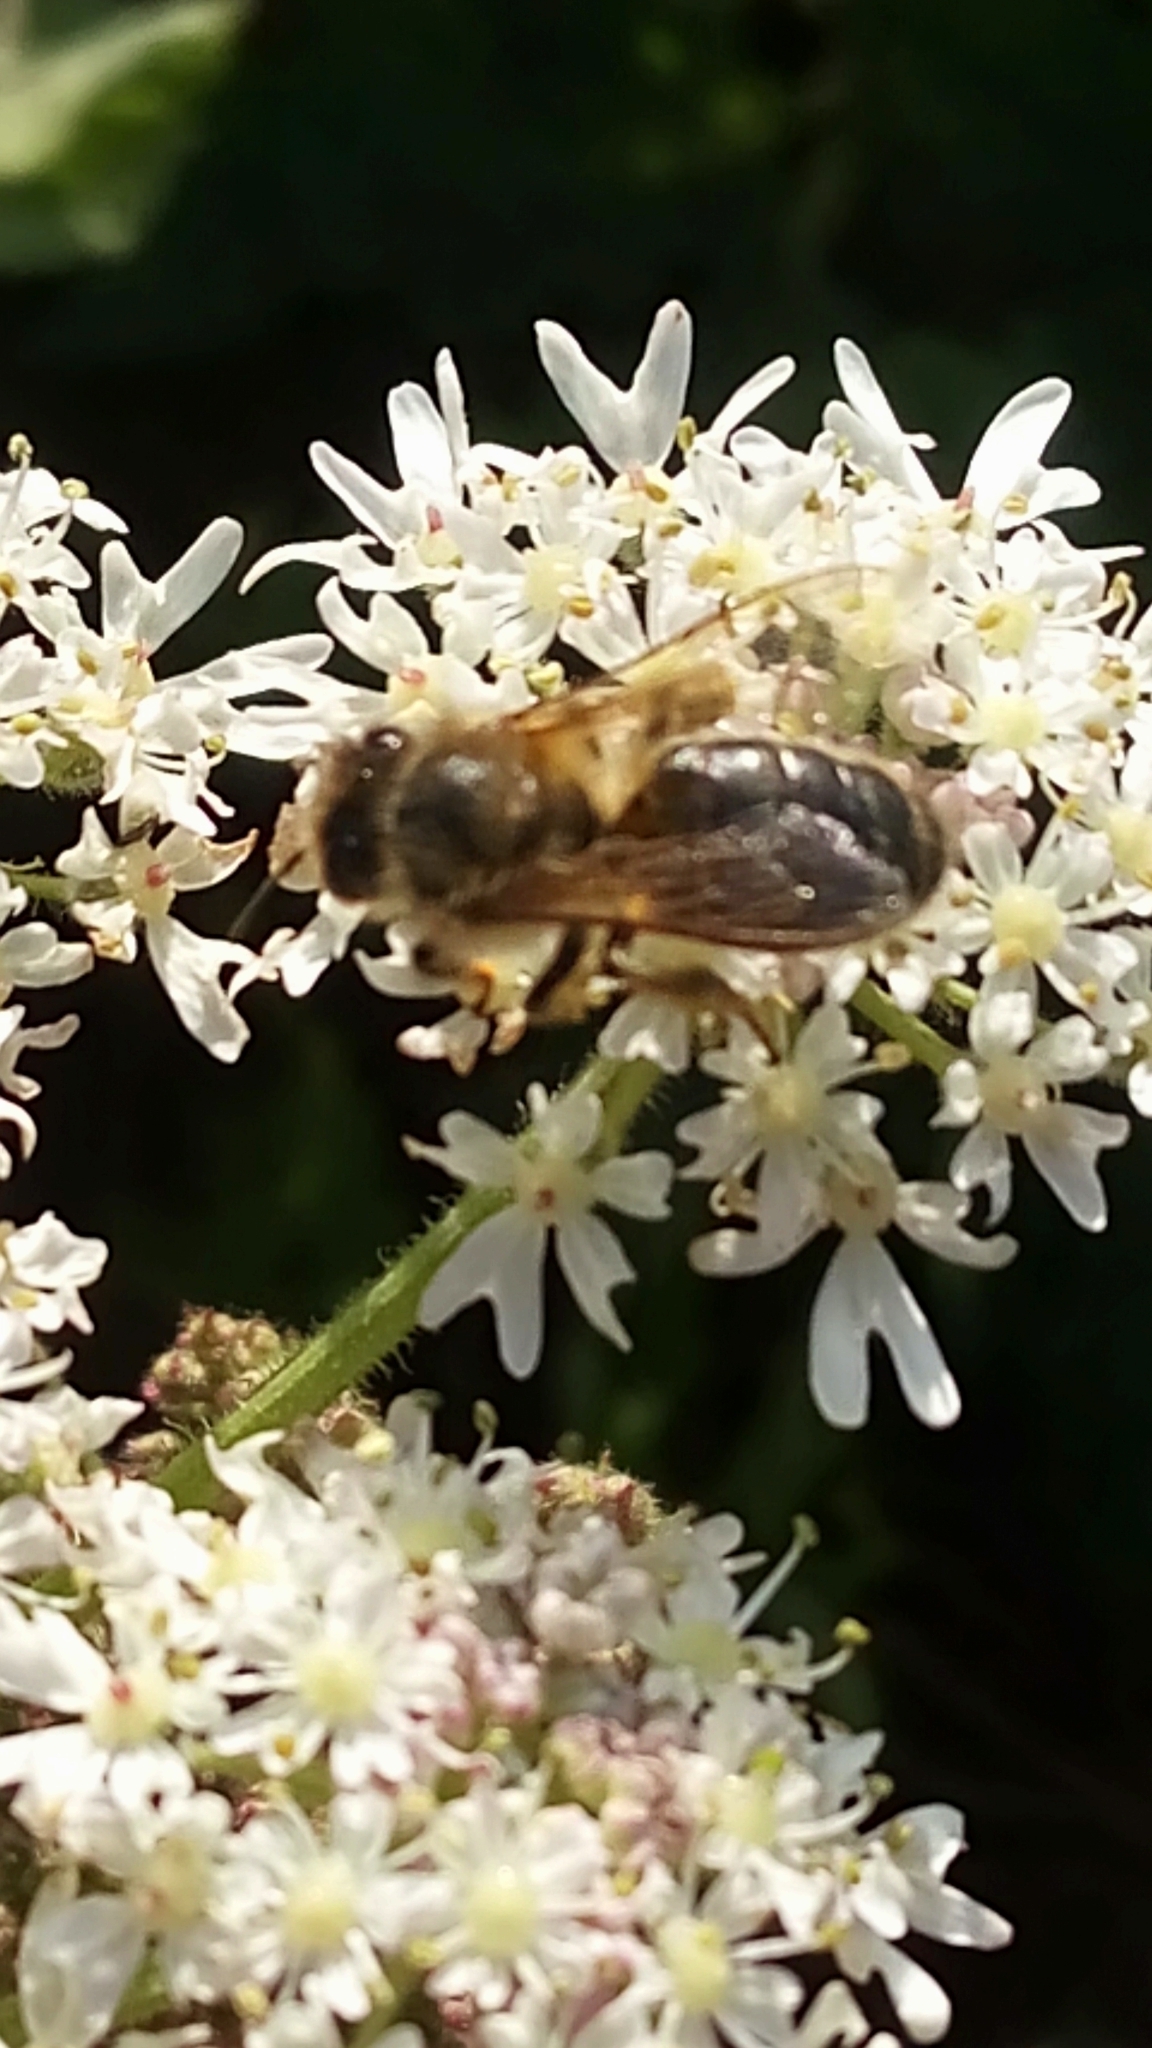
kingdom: Animalia
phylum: Arthropoda
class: Insecta
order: Hymenoptera
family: Apidae
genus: Apis
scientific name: Apis mellifera
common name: Honey bee
